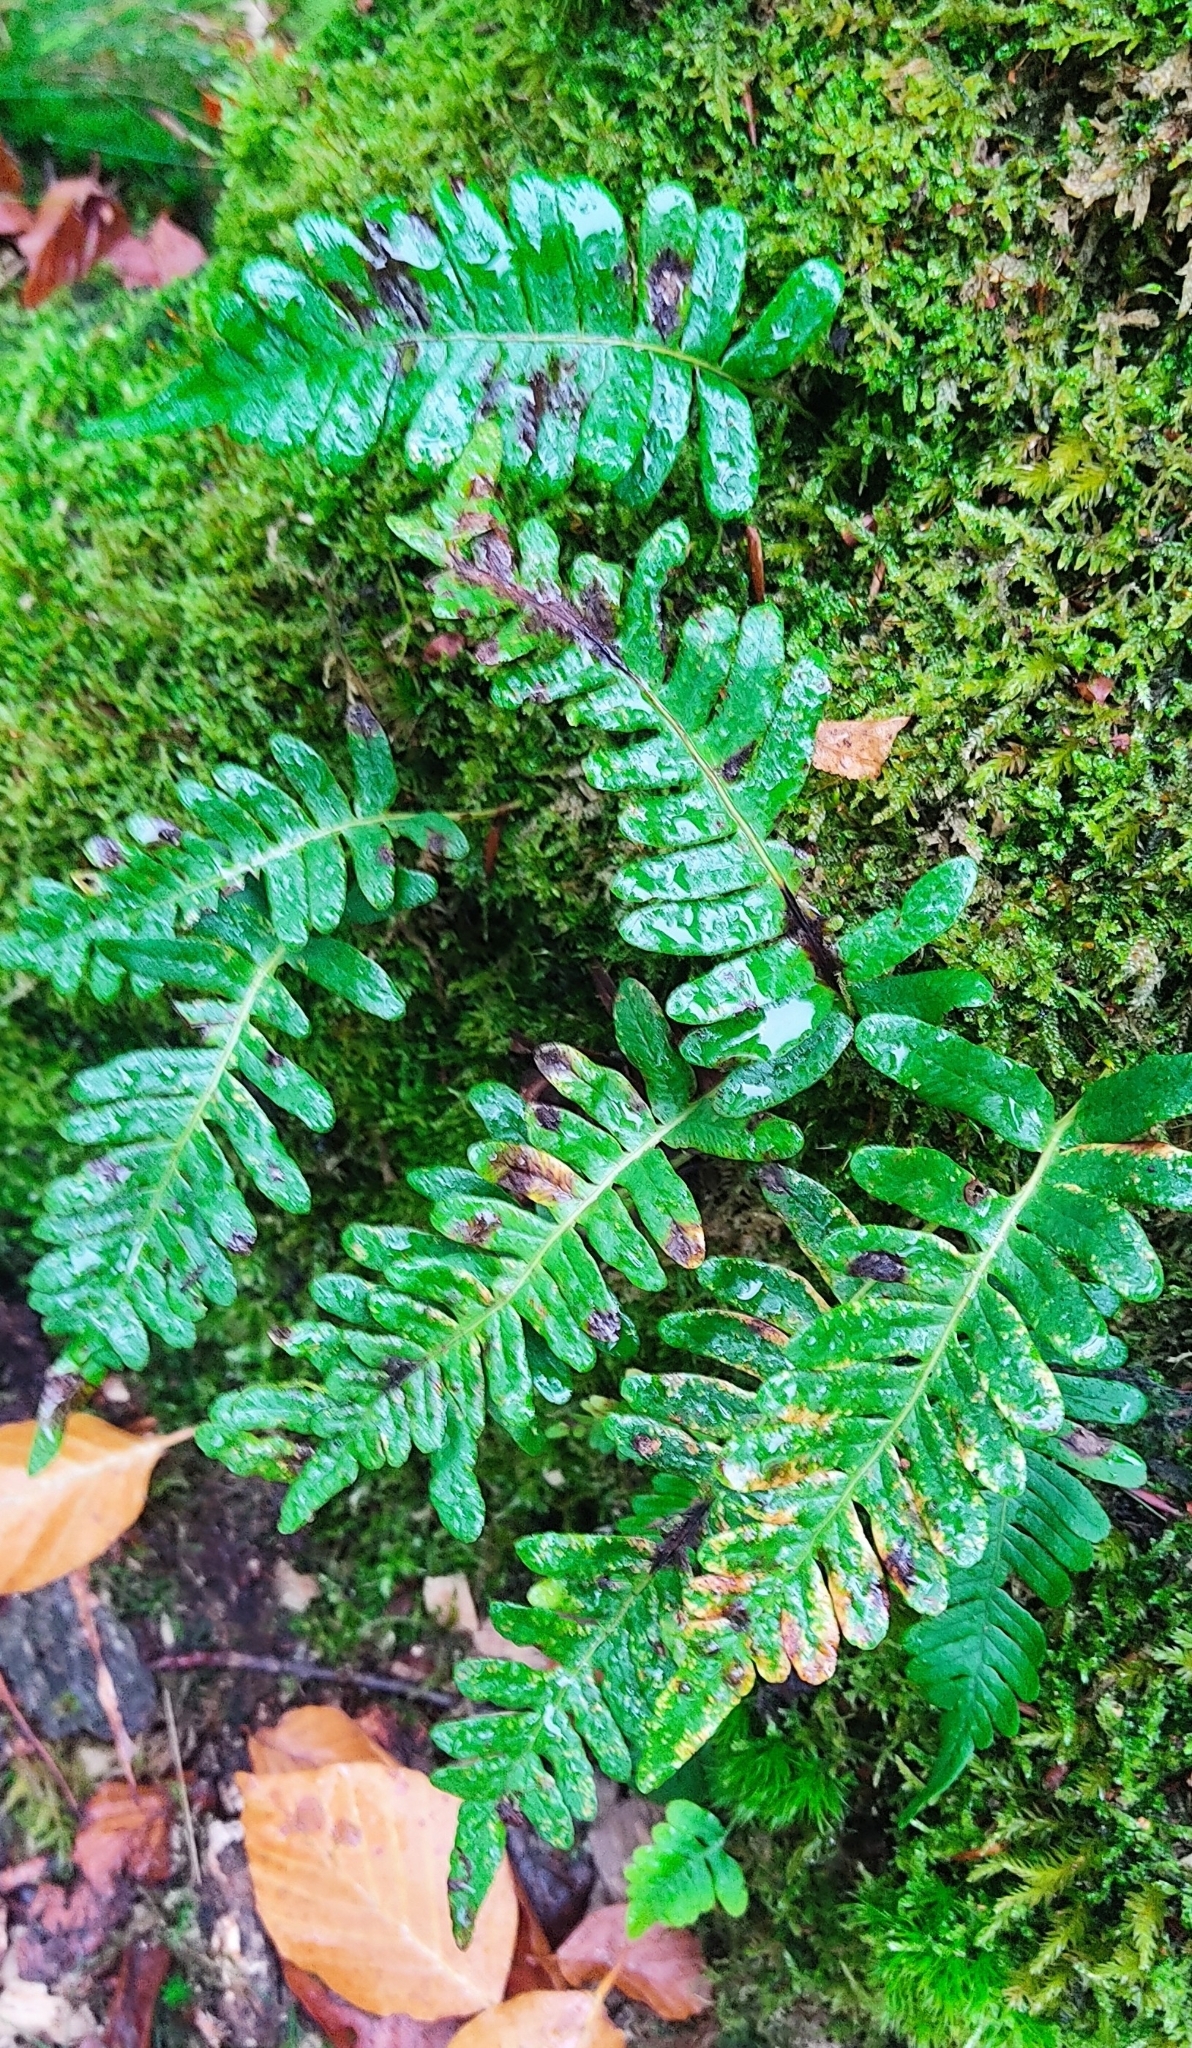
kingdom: Plantae
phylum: Tracheophyta
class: Polypodiopsida
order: Polypodiales
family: Polypodiaceae
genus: Polypodium
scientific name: Polypodium vulgare
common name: Common polypody
